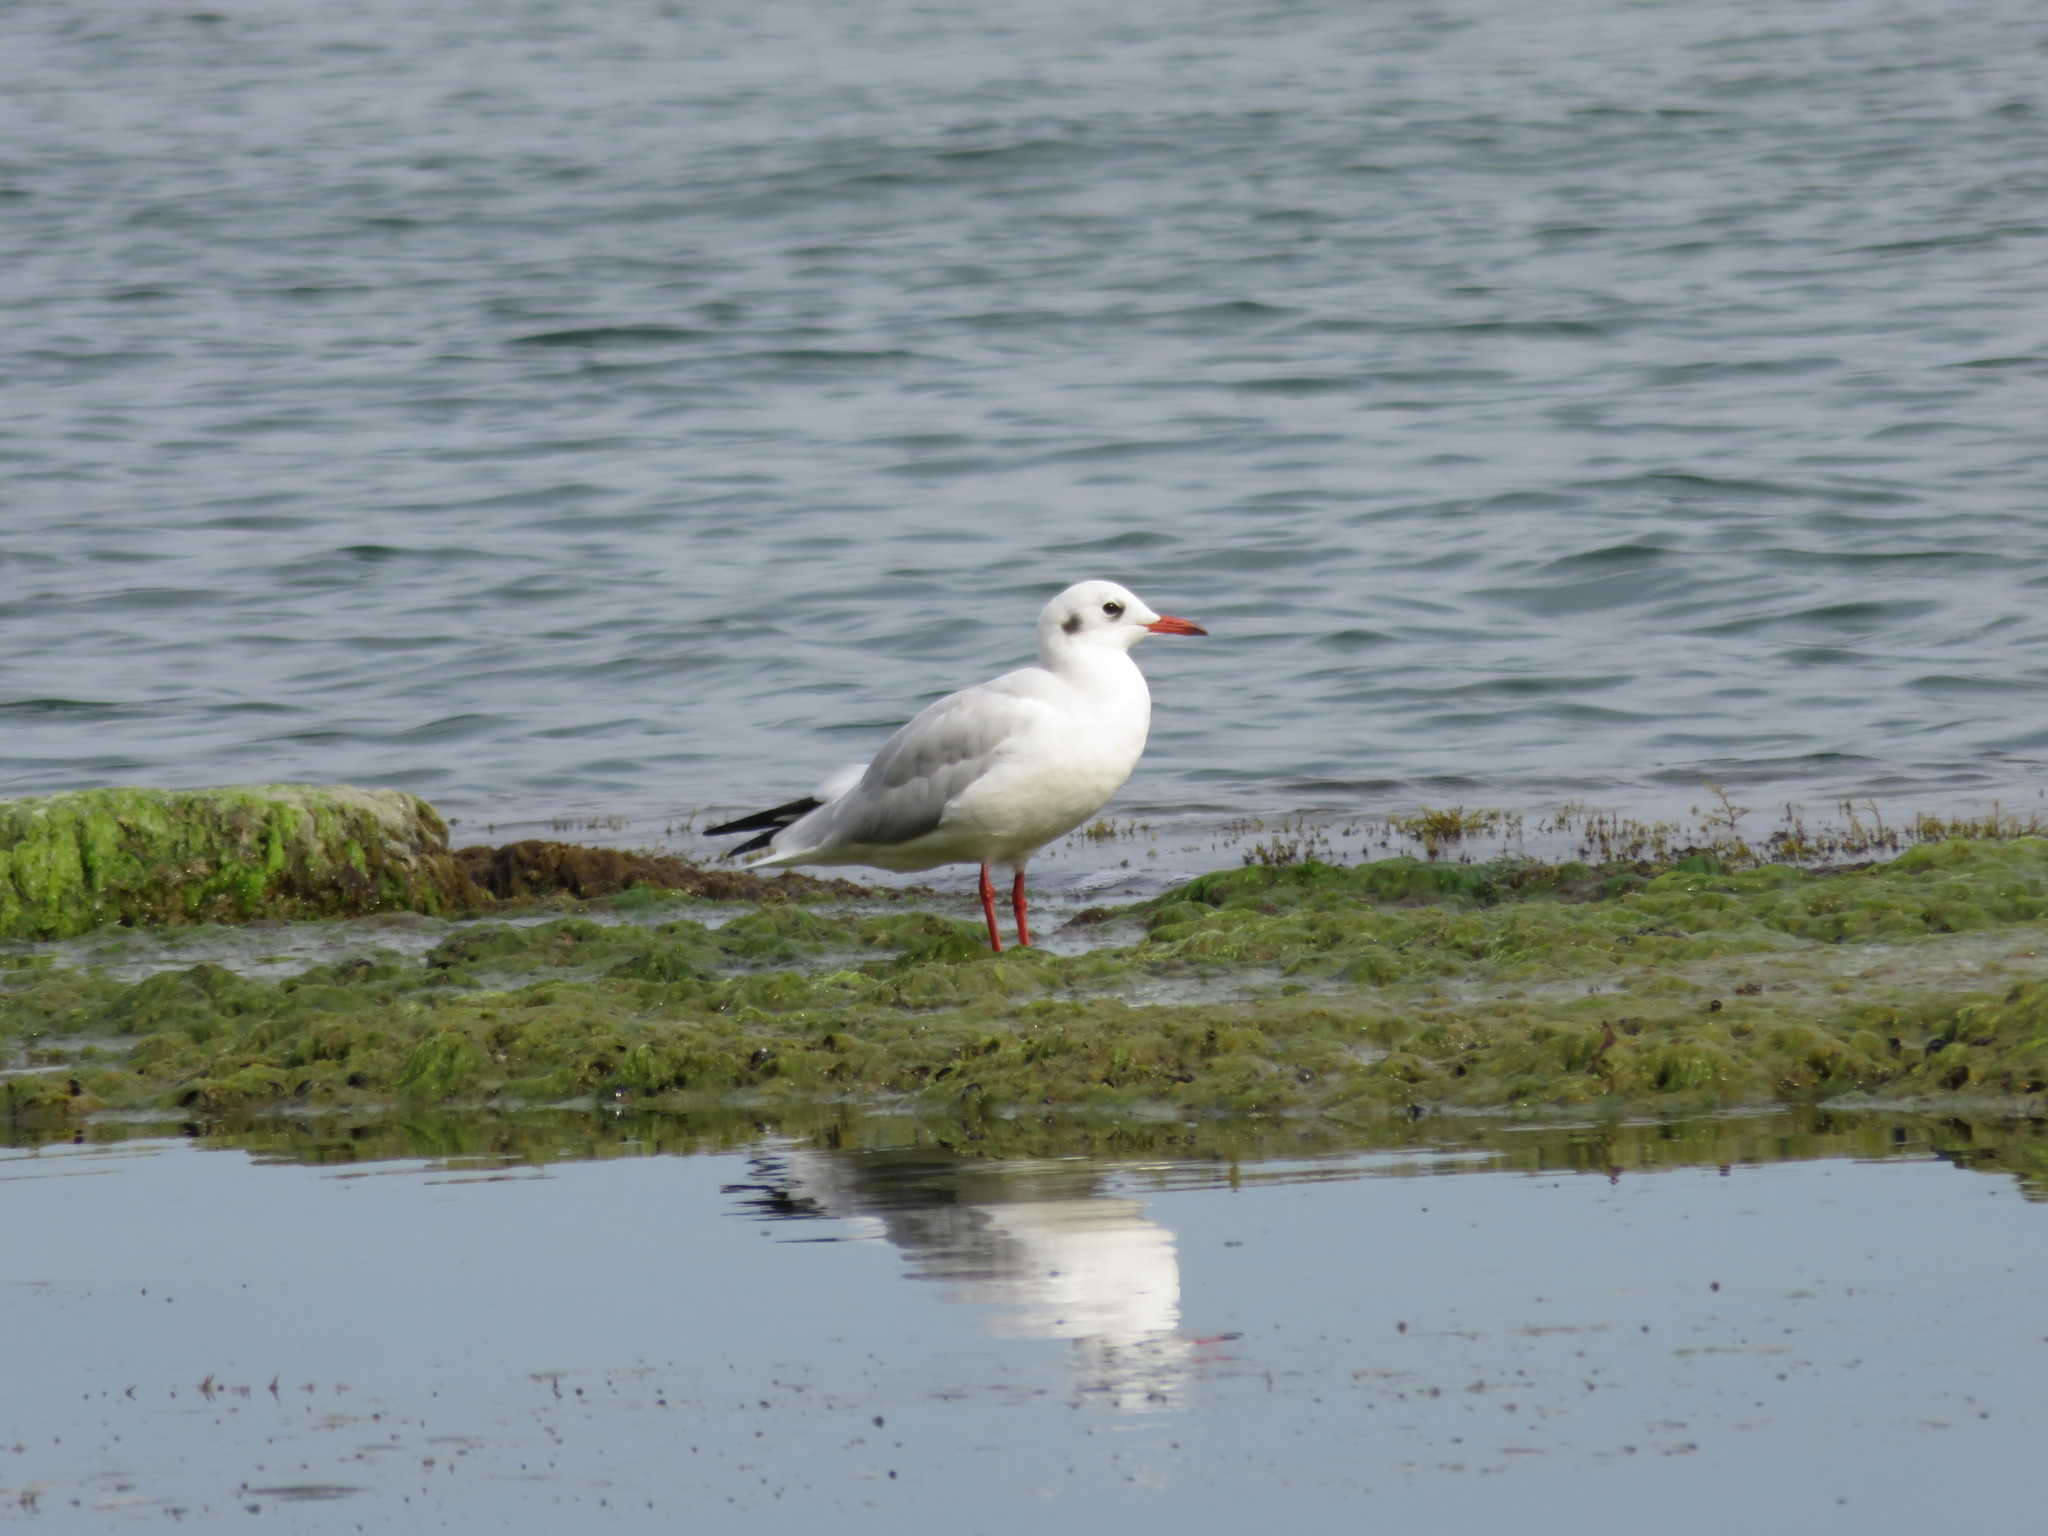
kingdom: Animalia
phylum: Chordata
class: Aves
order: Charadriiformes
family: Laridae
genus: Chroicocephalus
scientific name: Chroicocephalus ridibundus
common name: Black-headed gull
